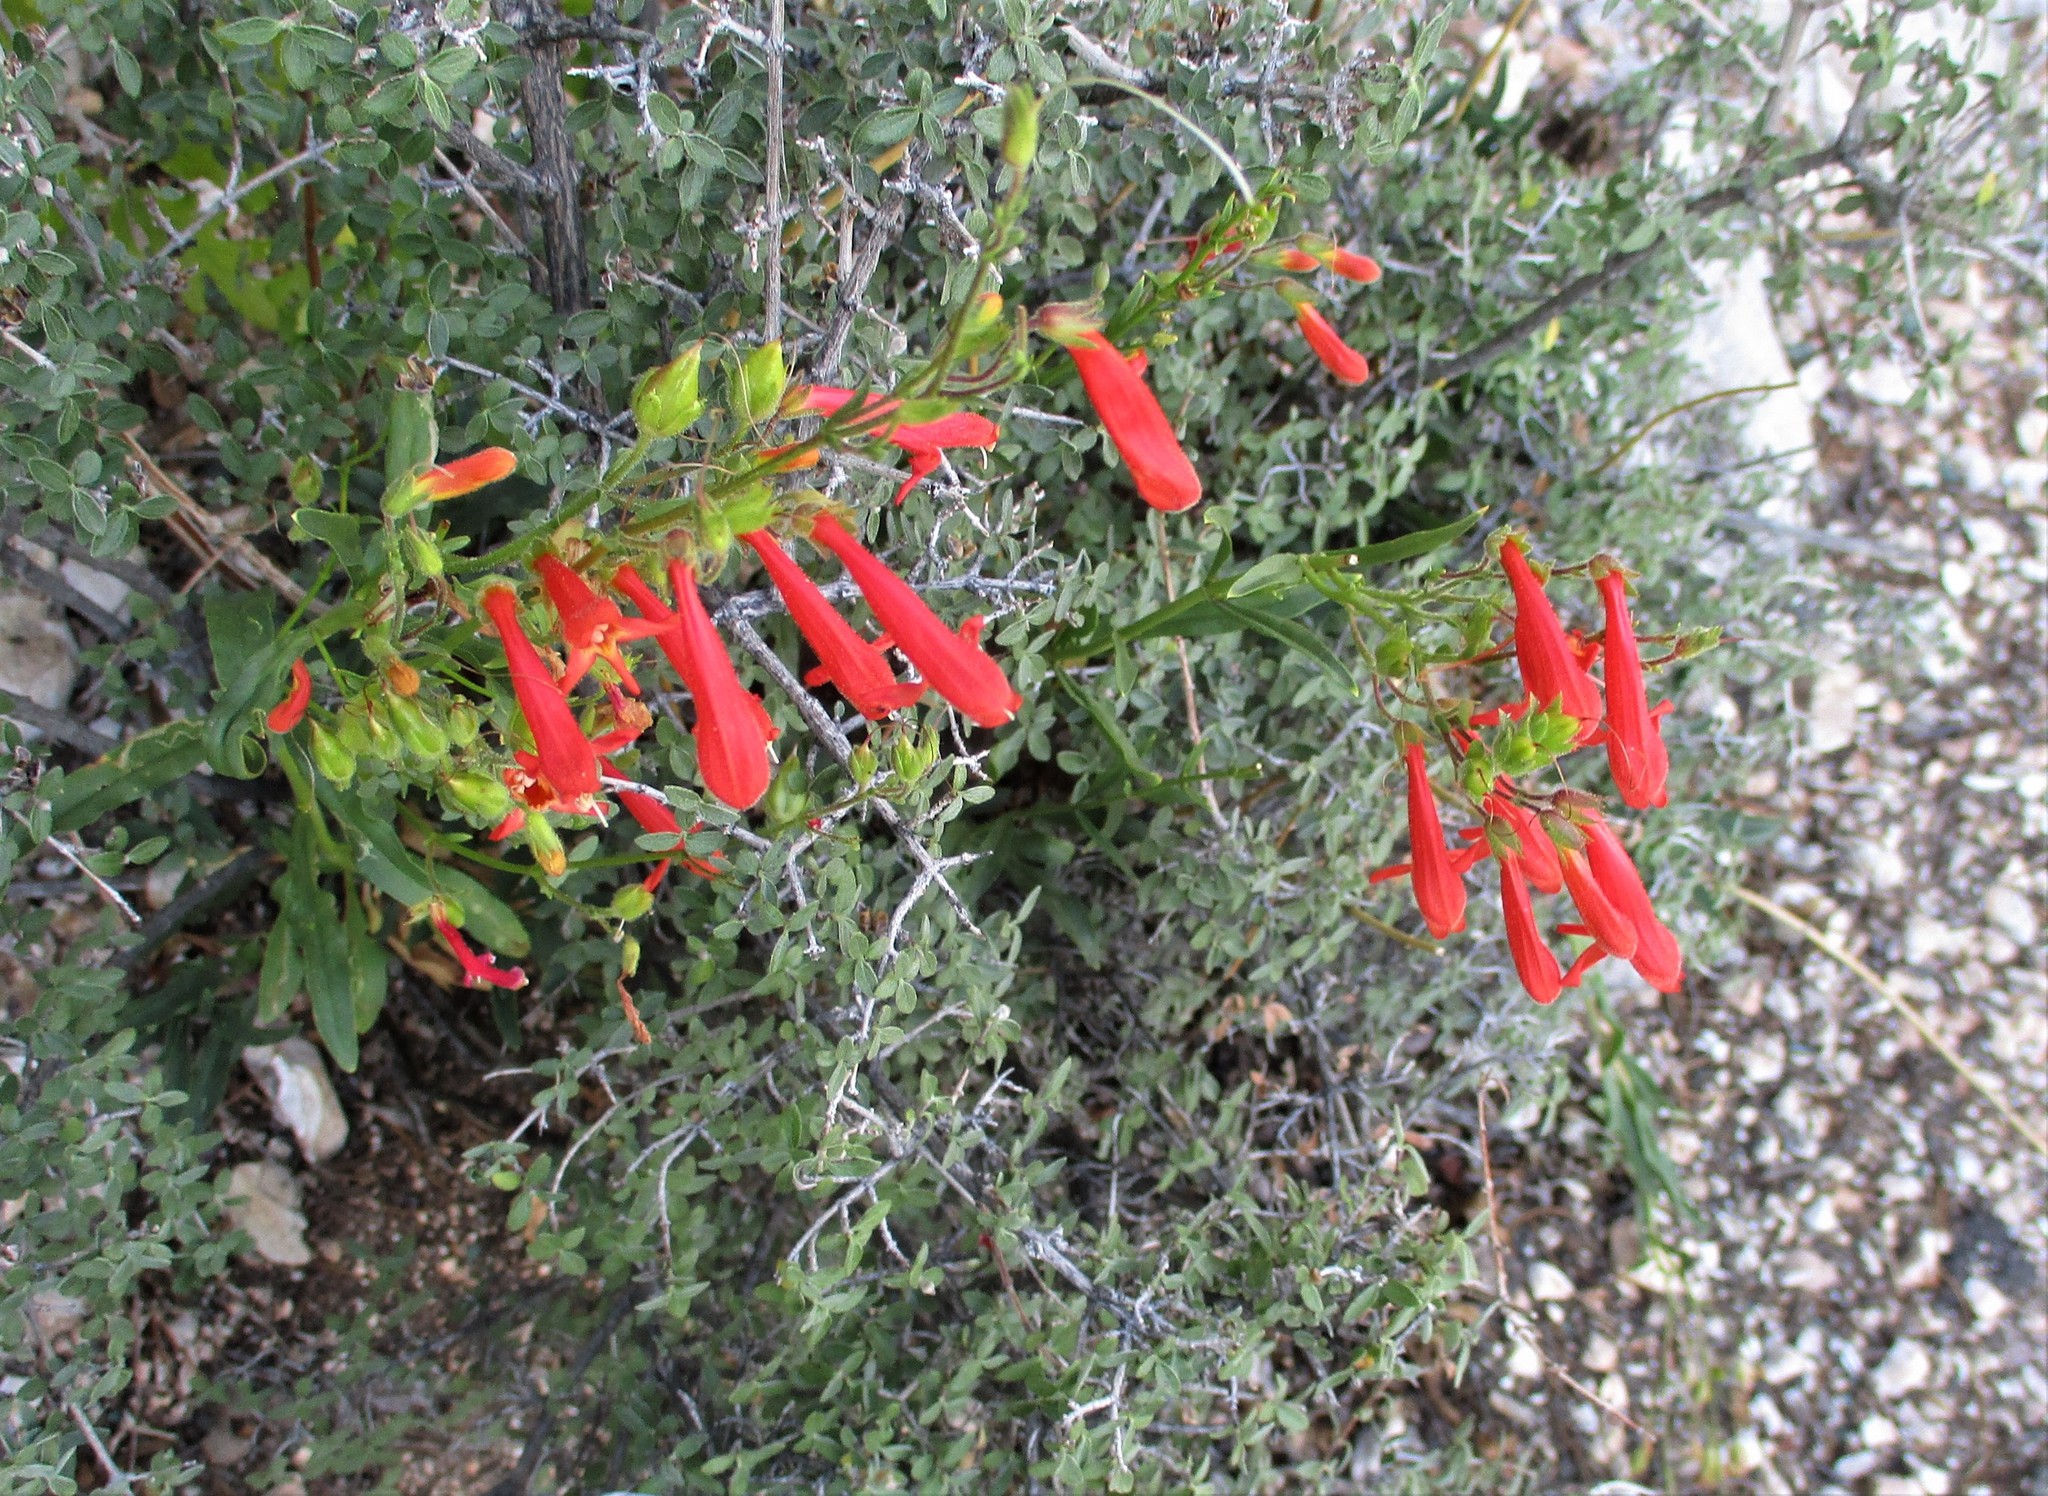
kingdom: Plantae
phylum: Tracheophyta
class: Magnoliopsida
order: Lamiales
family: Plantaginaceae
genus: Penstemon
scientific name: Penstemon barbatus
